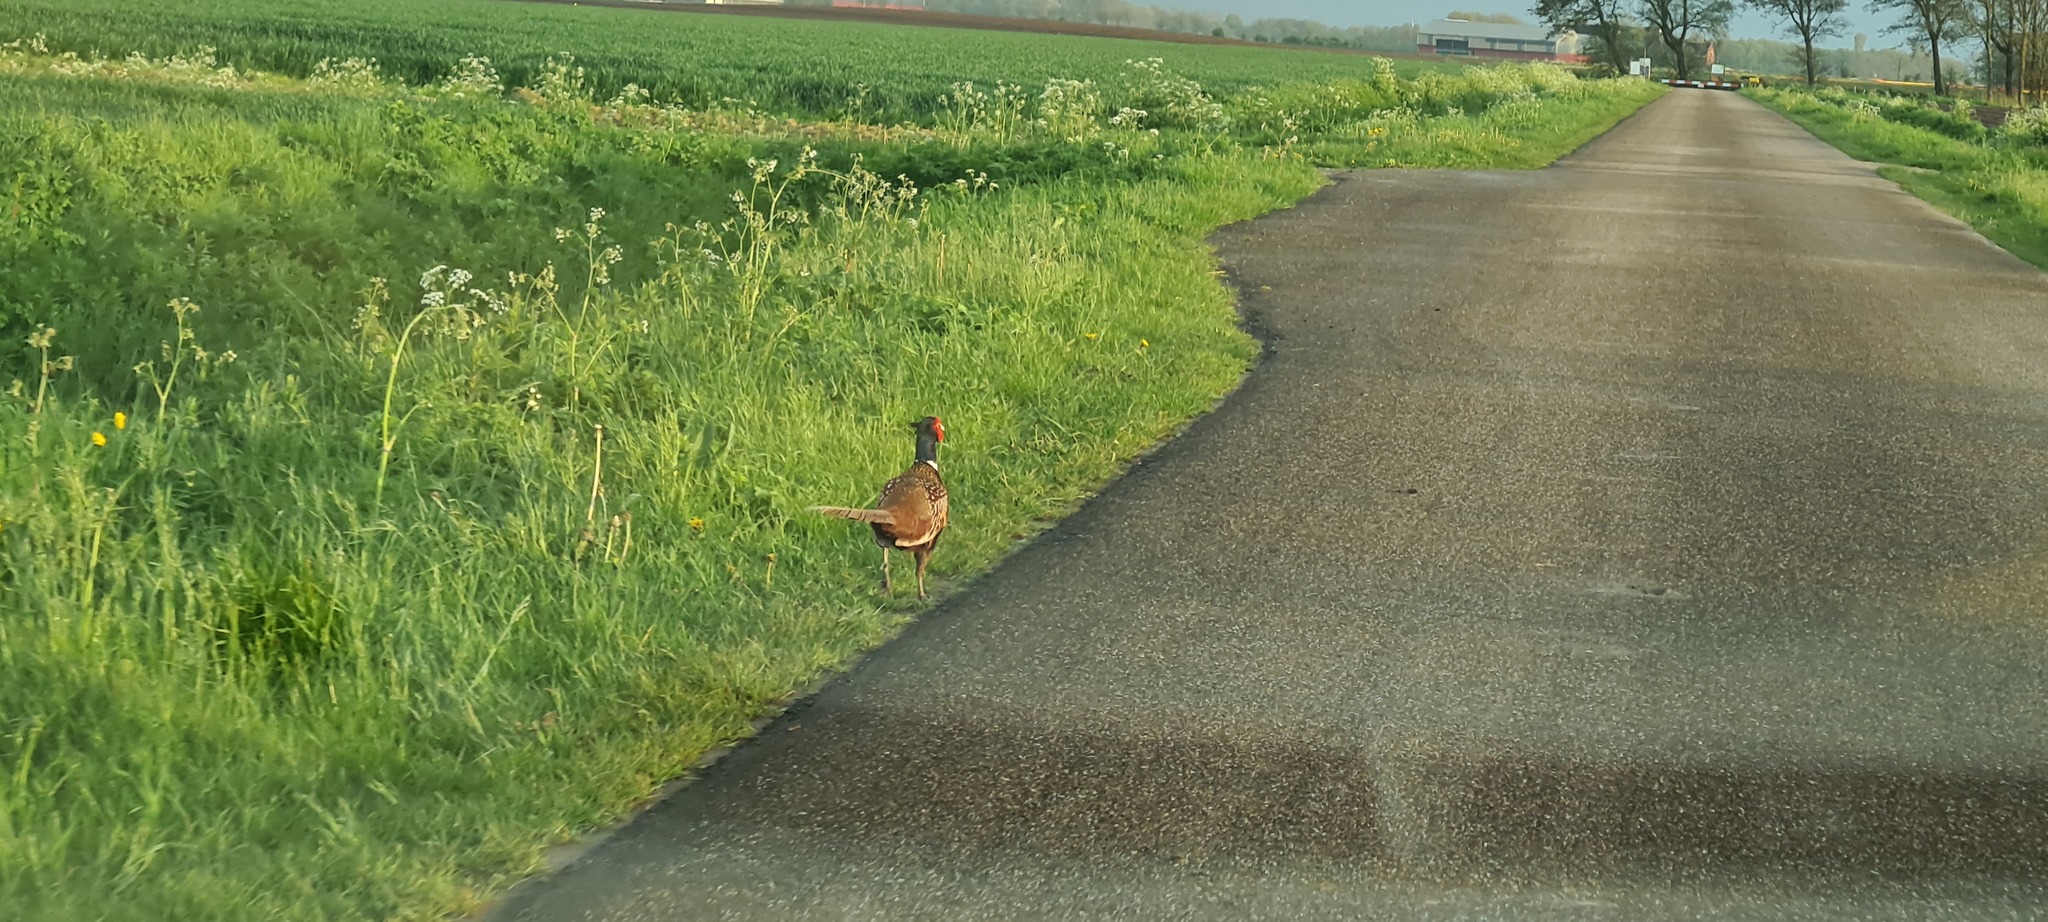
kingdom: Animalia
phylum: Chordata
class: Aves
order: Galliformes
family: Phasianidae
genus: Phasianus
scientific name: Phasianus colchicus
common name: Common pheasant
